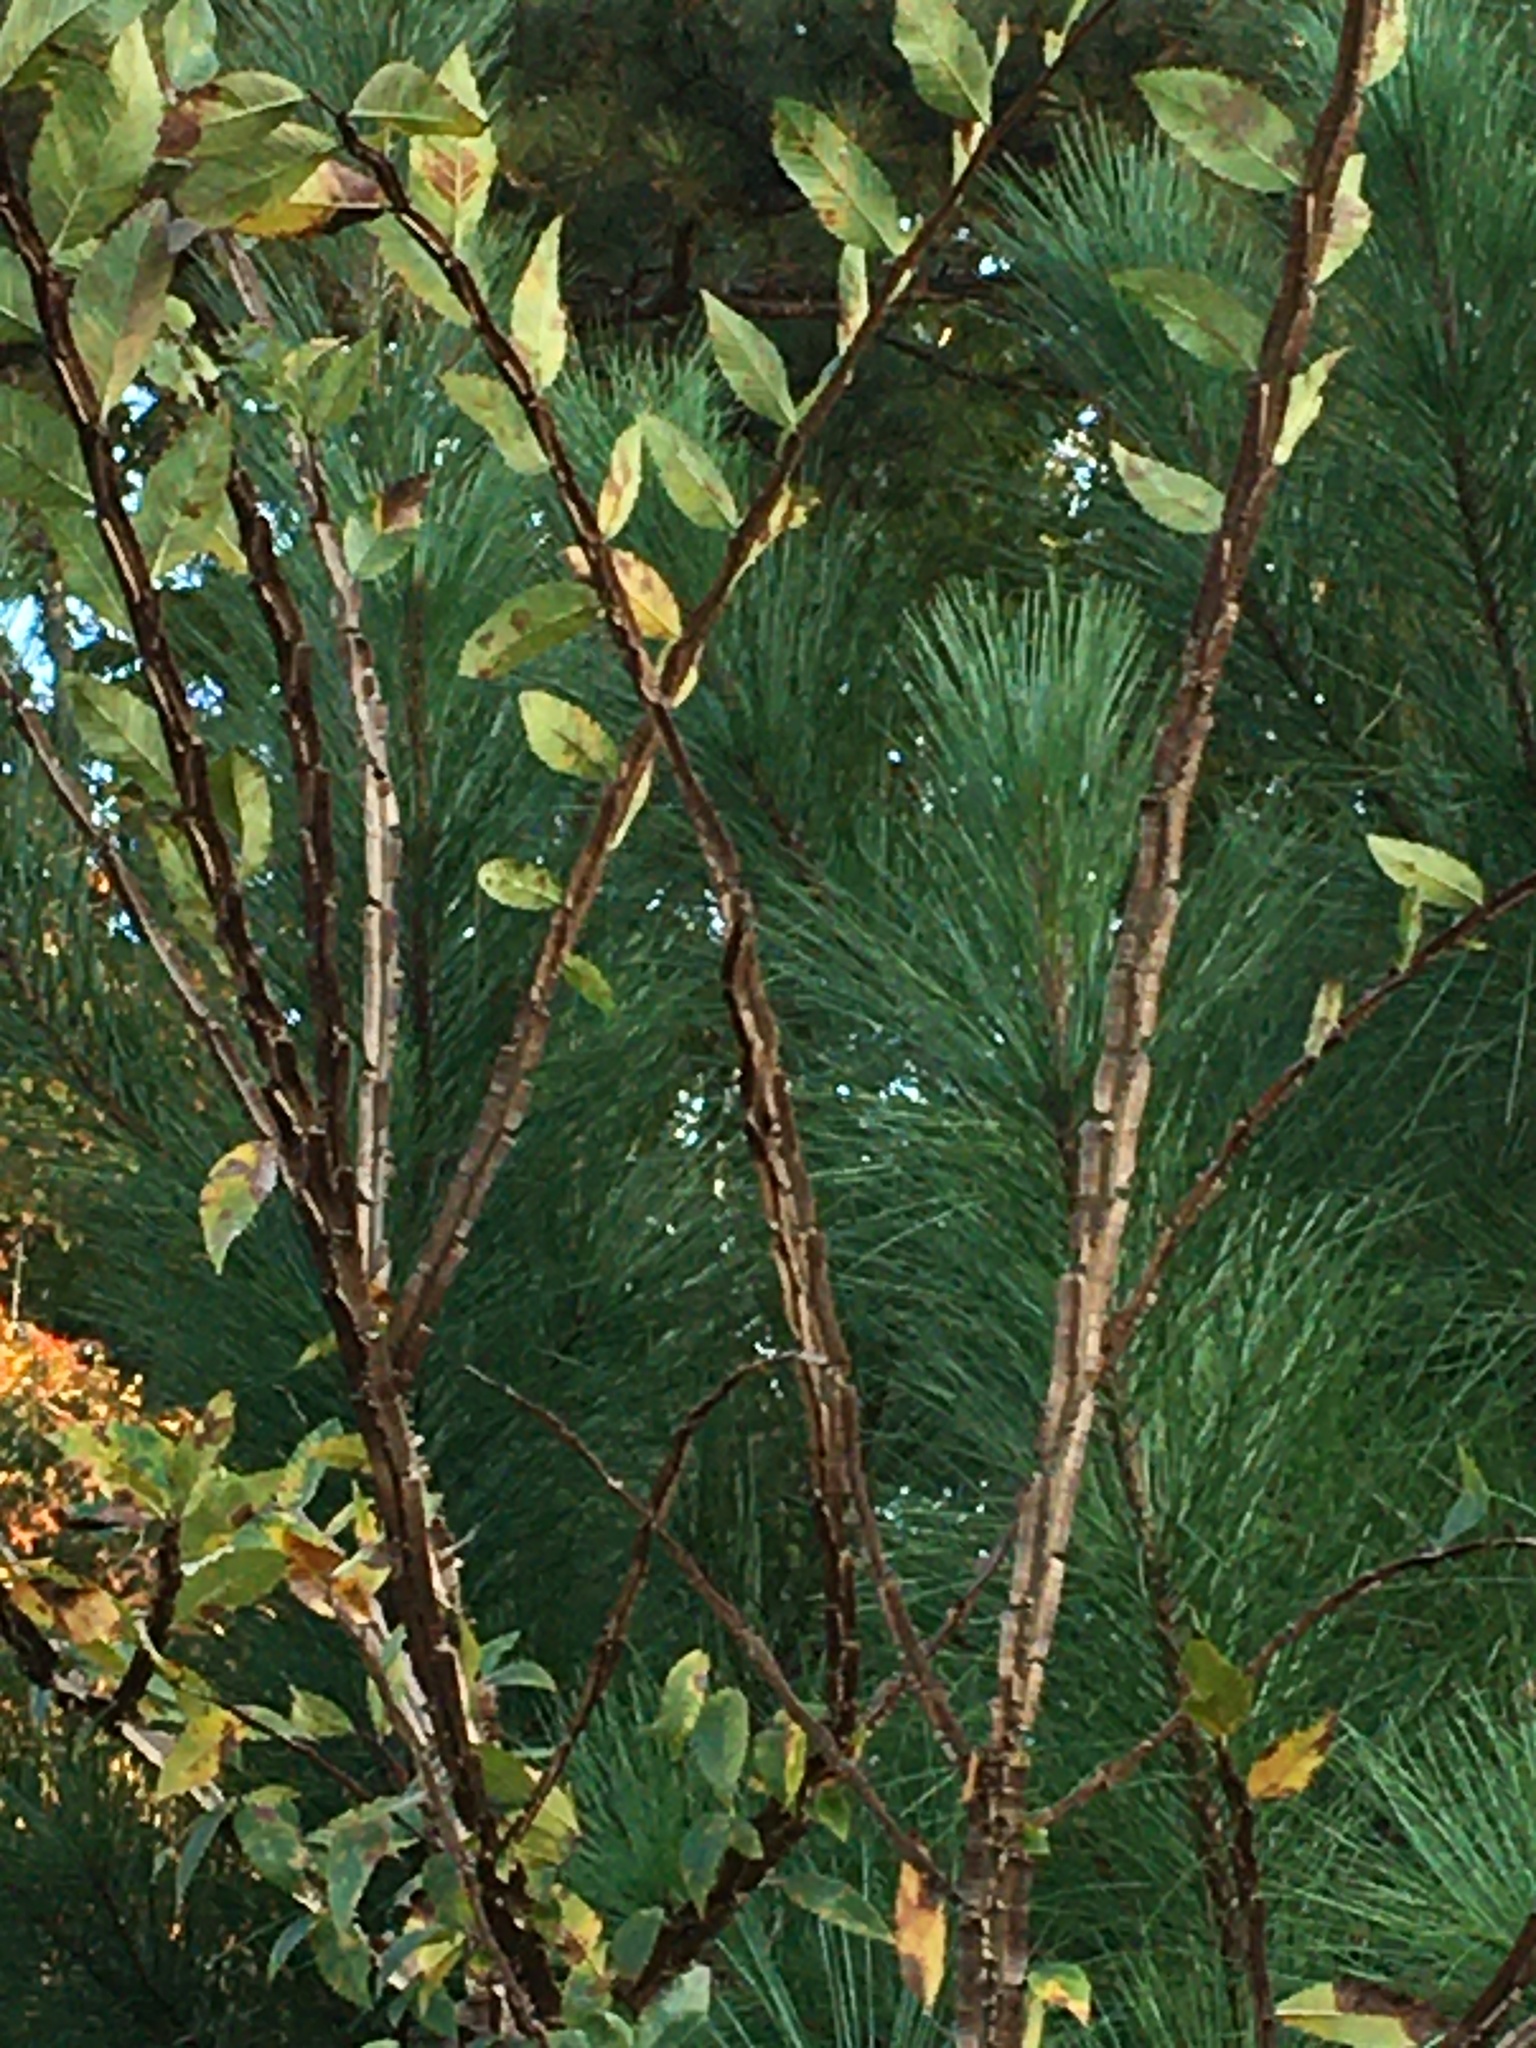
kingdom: Plantae
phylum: Tracheophyta
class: Magnoliopsida
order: Rosales
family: Ulmaceae
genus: Ulmus
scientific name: Ulmus alata
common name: Winged elm
